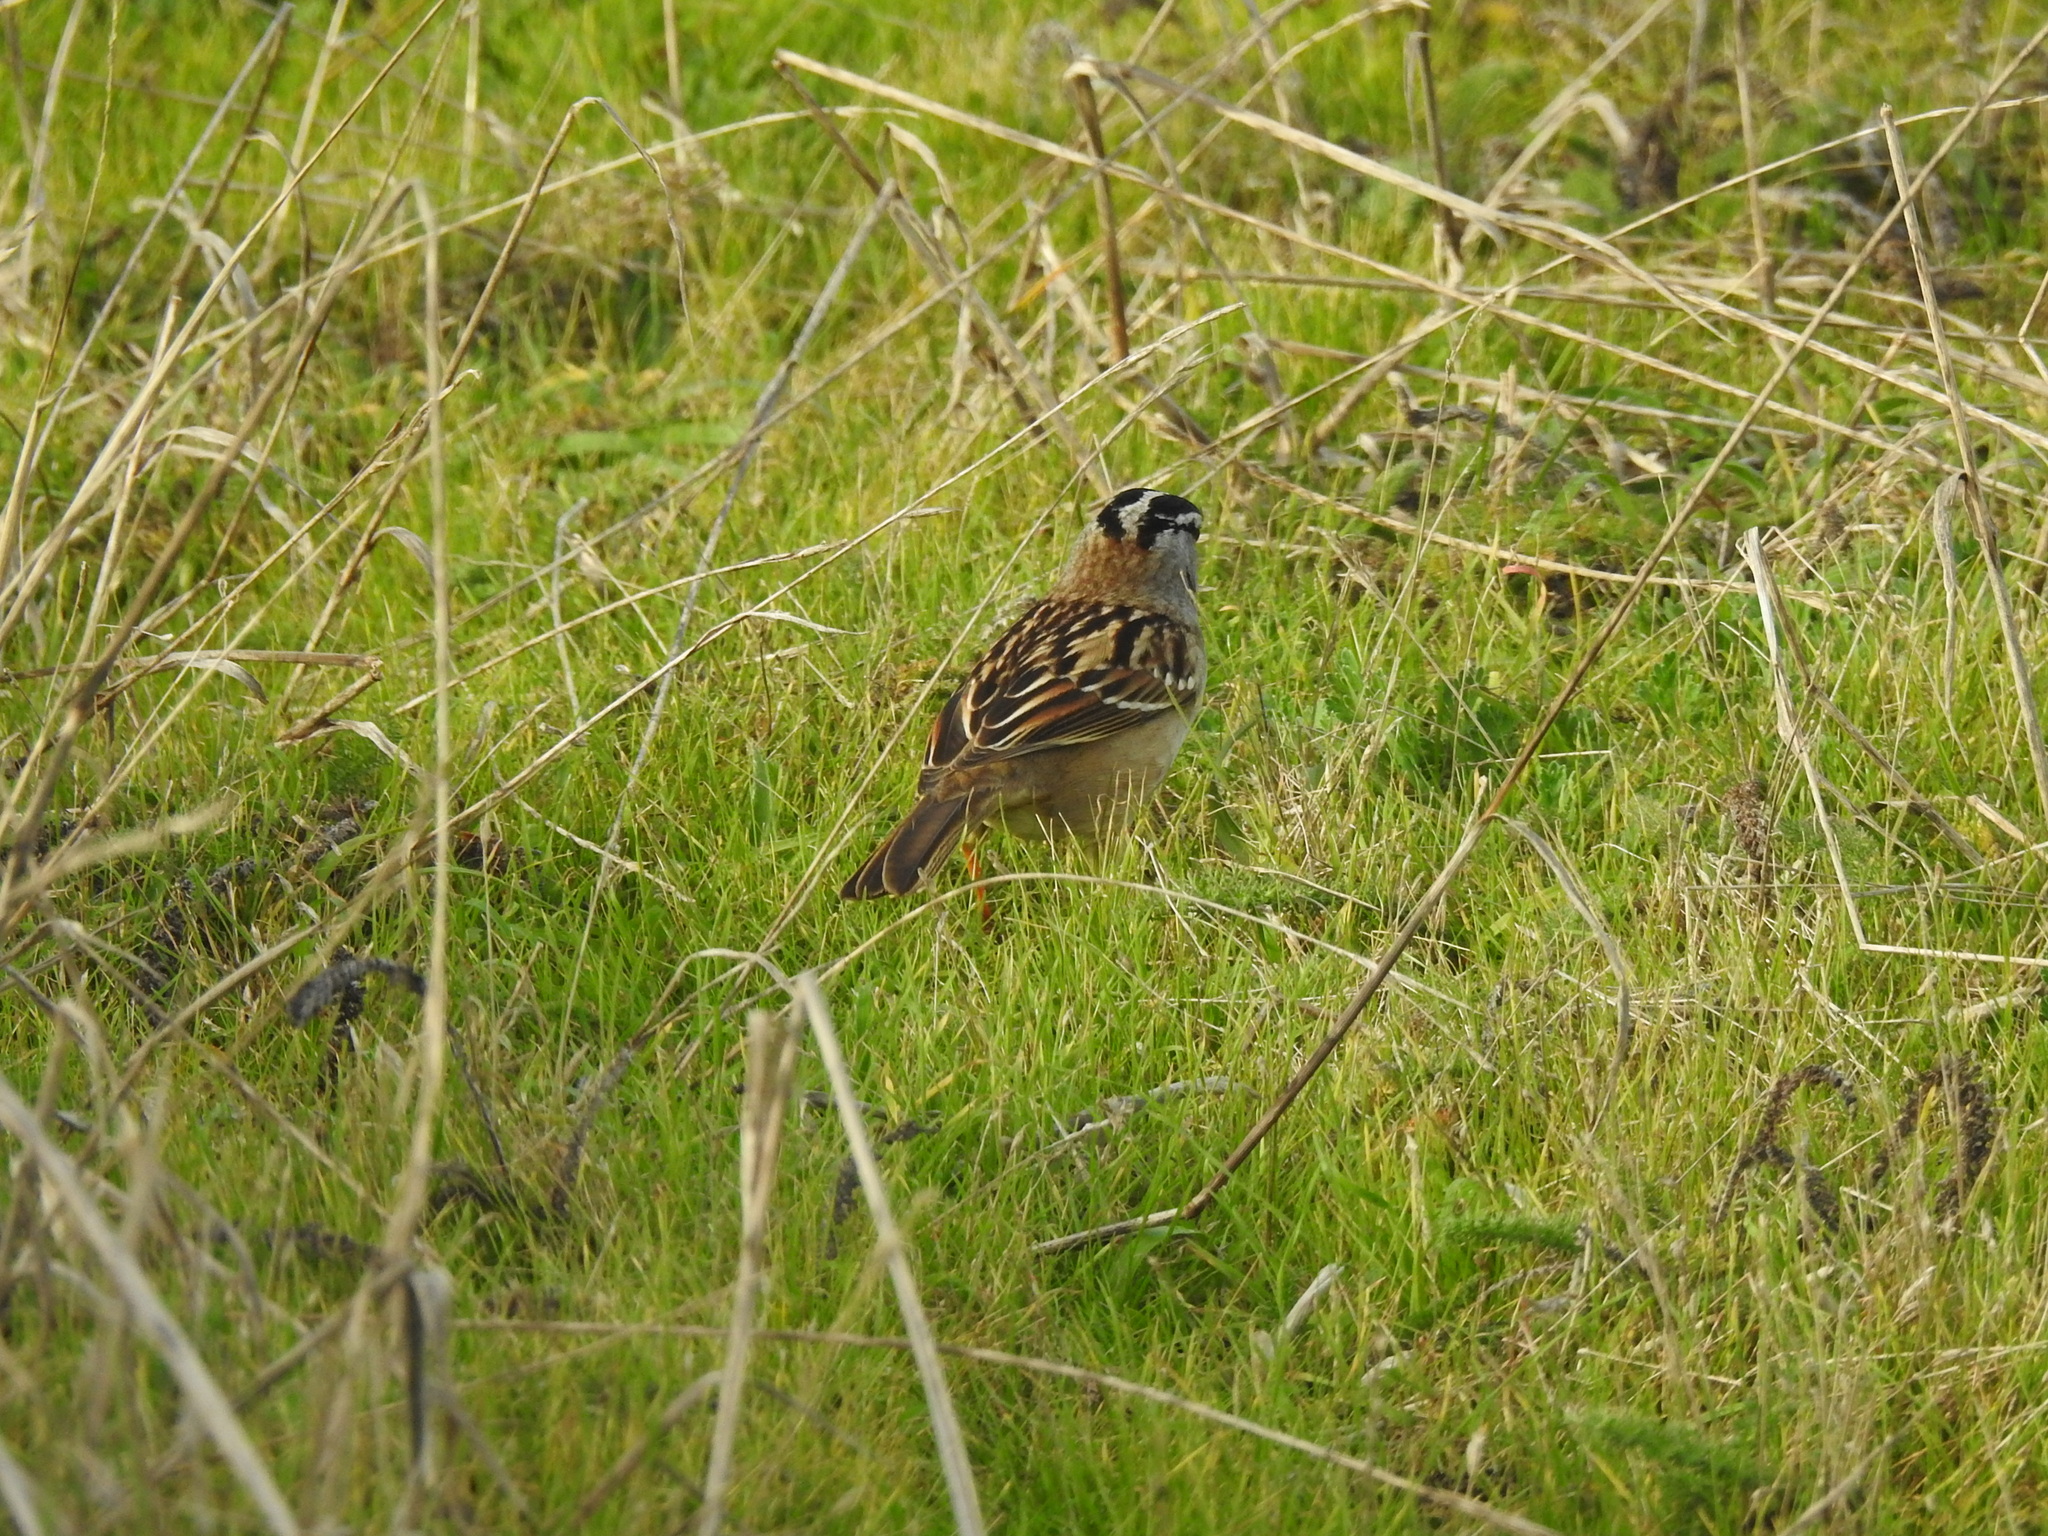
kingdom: Animalia
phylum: Chordata
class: Aves
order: Passeriformes
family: Passerellidae
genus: Zonotrichia
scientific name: Zonotrichia leucophrys
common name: White-crowned sparrow
